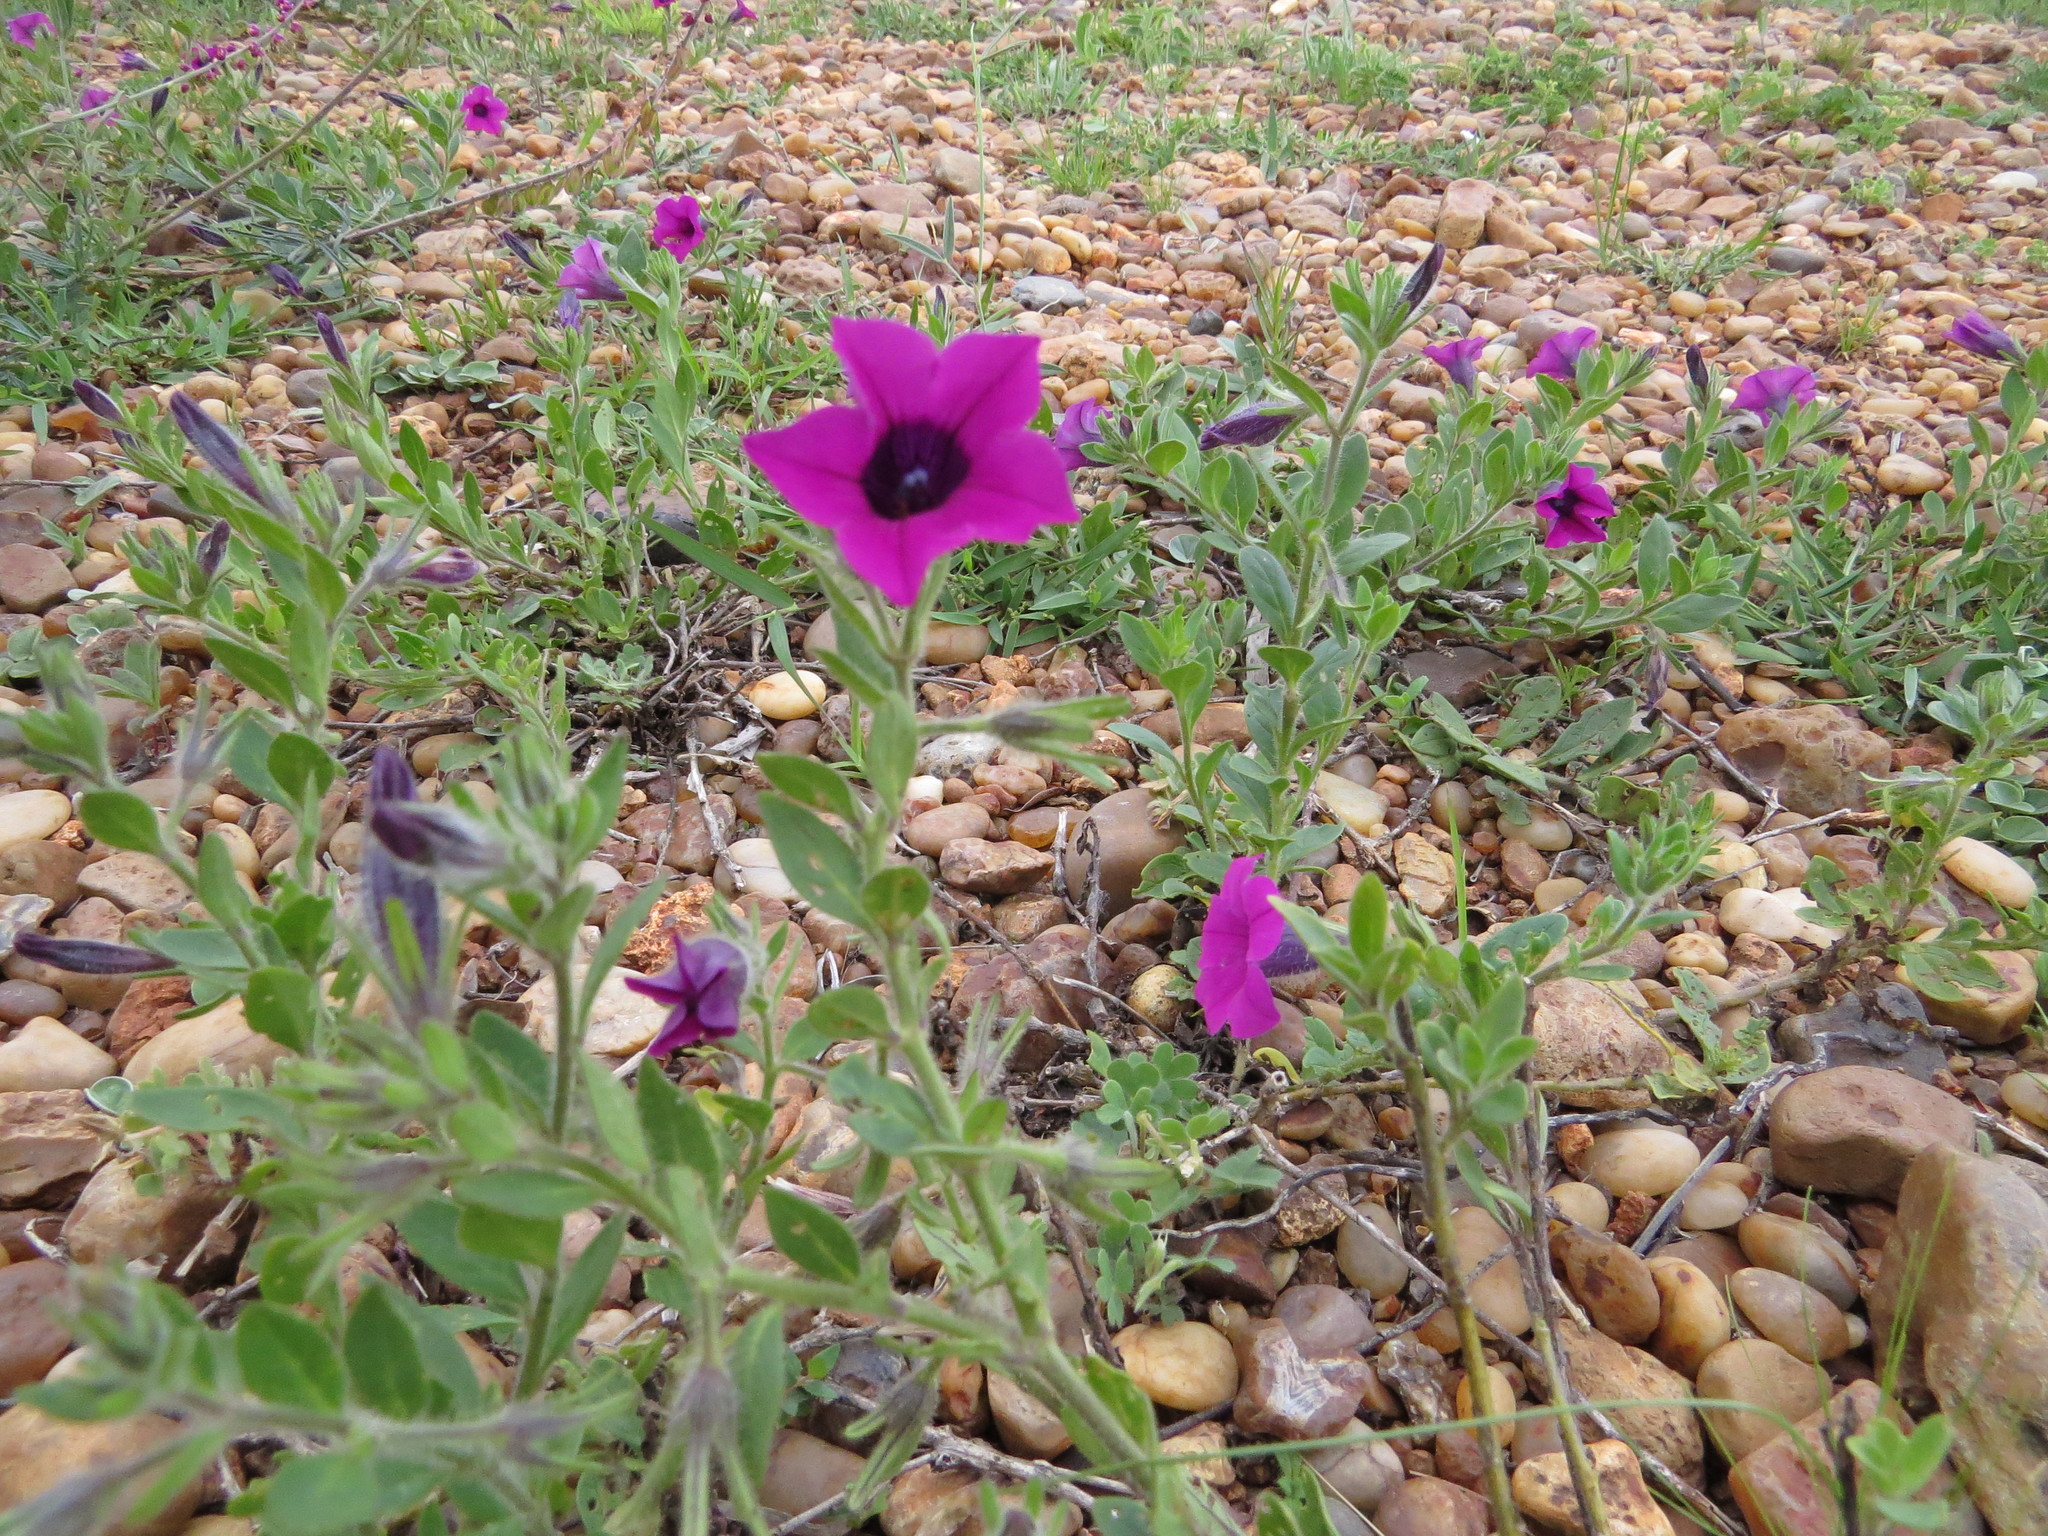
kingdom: Plantae
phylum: Tracheophyta
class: Magnoliopsida
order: Solanales
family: Solanaceae
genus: Petunia
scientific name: Petunia integrifolia
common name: Violet-flower petunia
